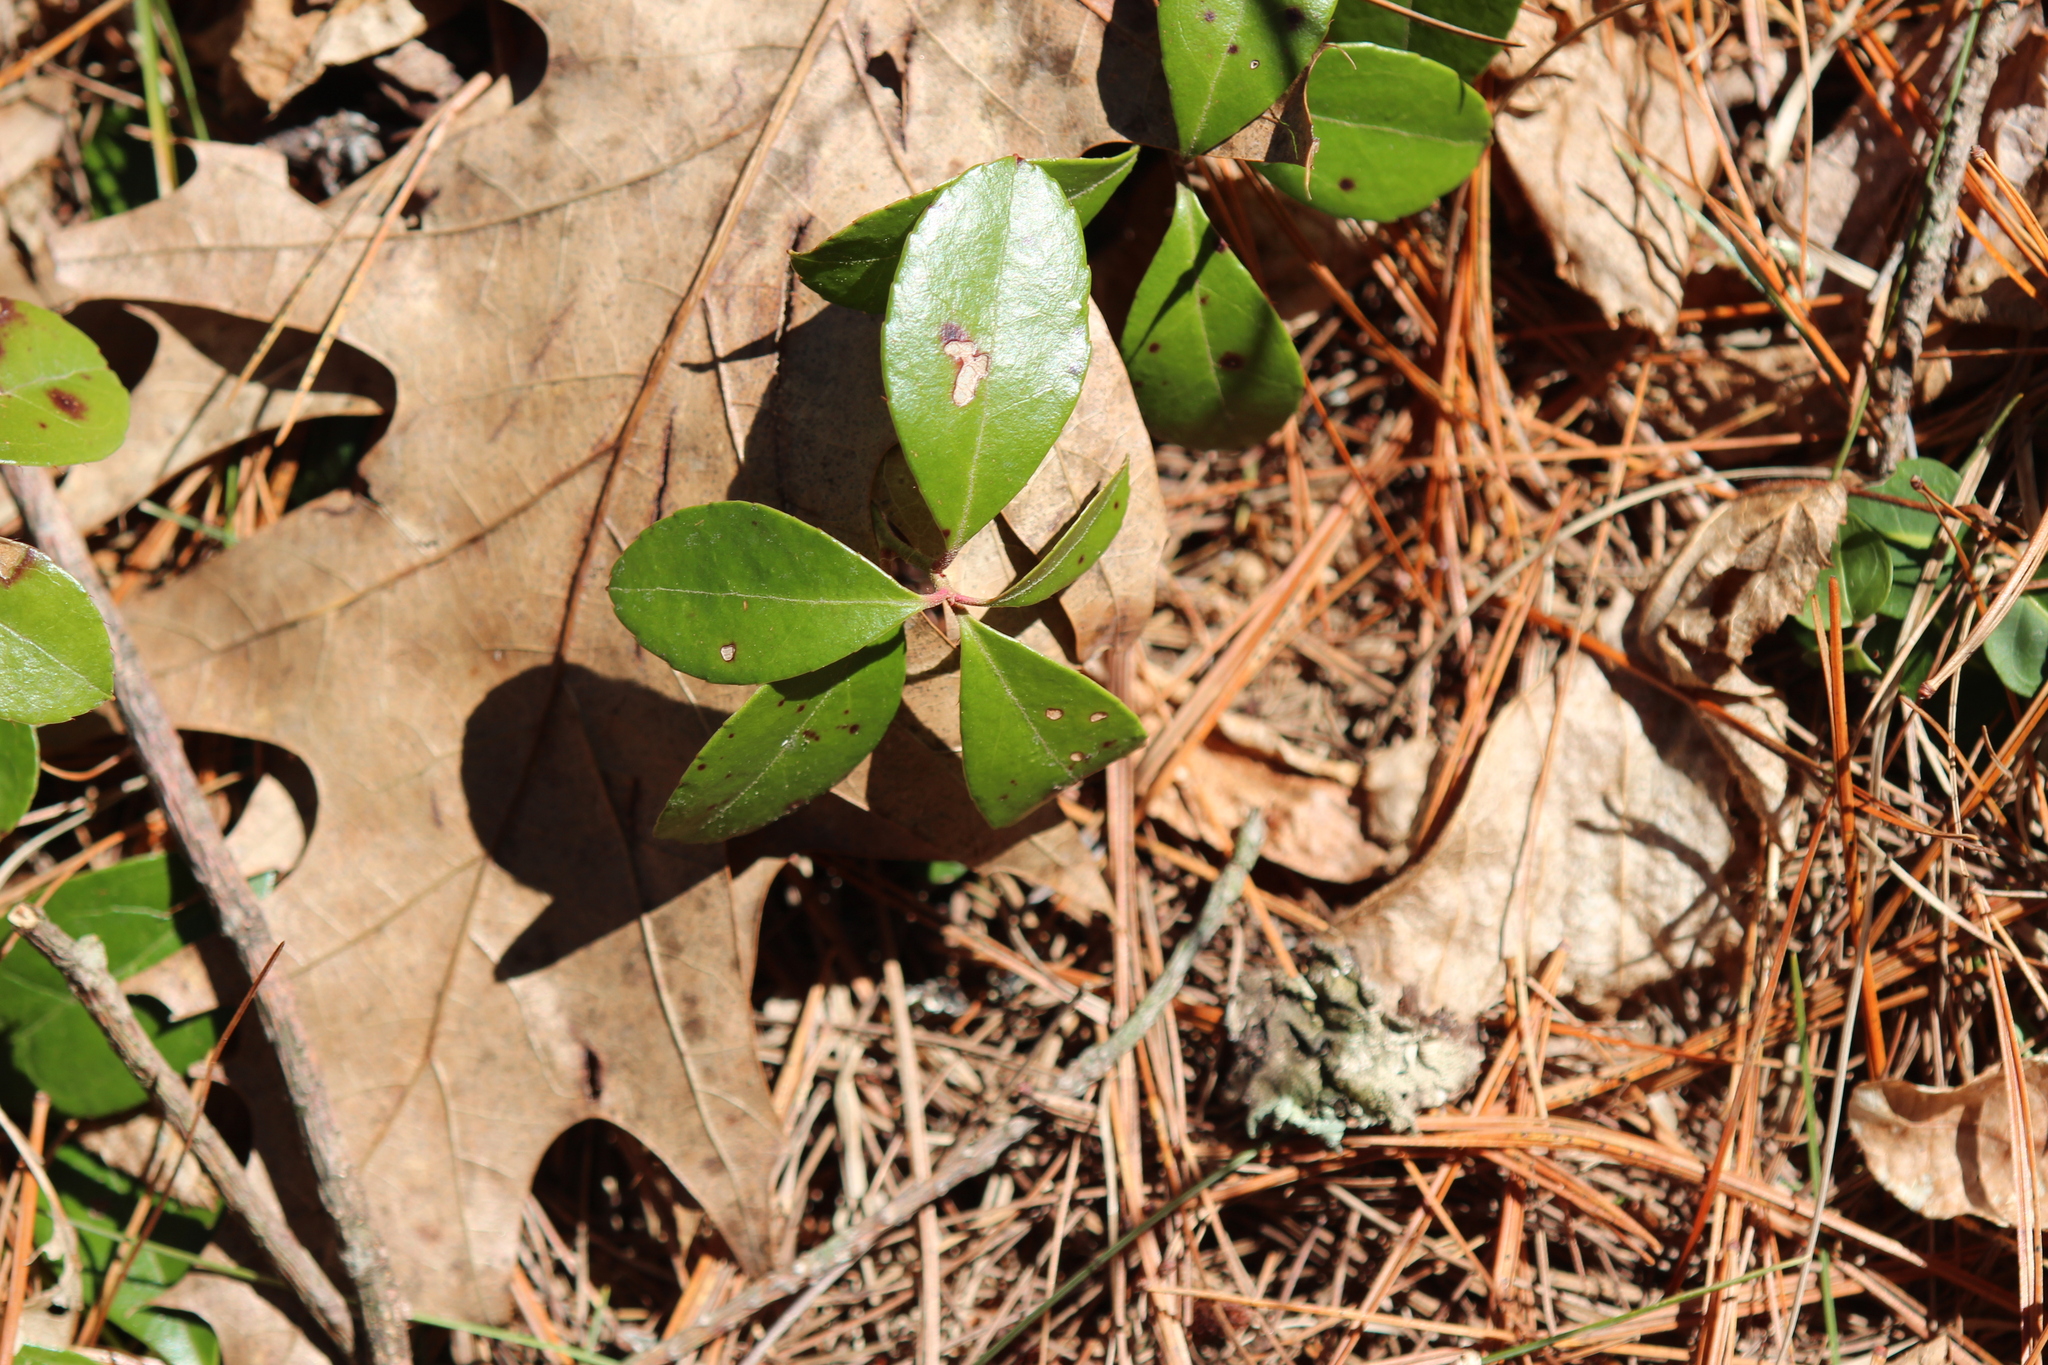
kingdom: Plantae
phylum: Tracheophyta
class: Magnoliopsida
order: Ericales
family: Ericaceae
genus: Gaultheria
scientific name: Gaultheria procumbens
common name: Checkerberry
